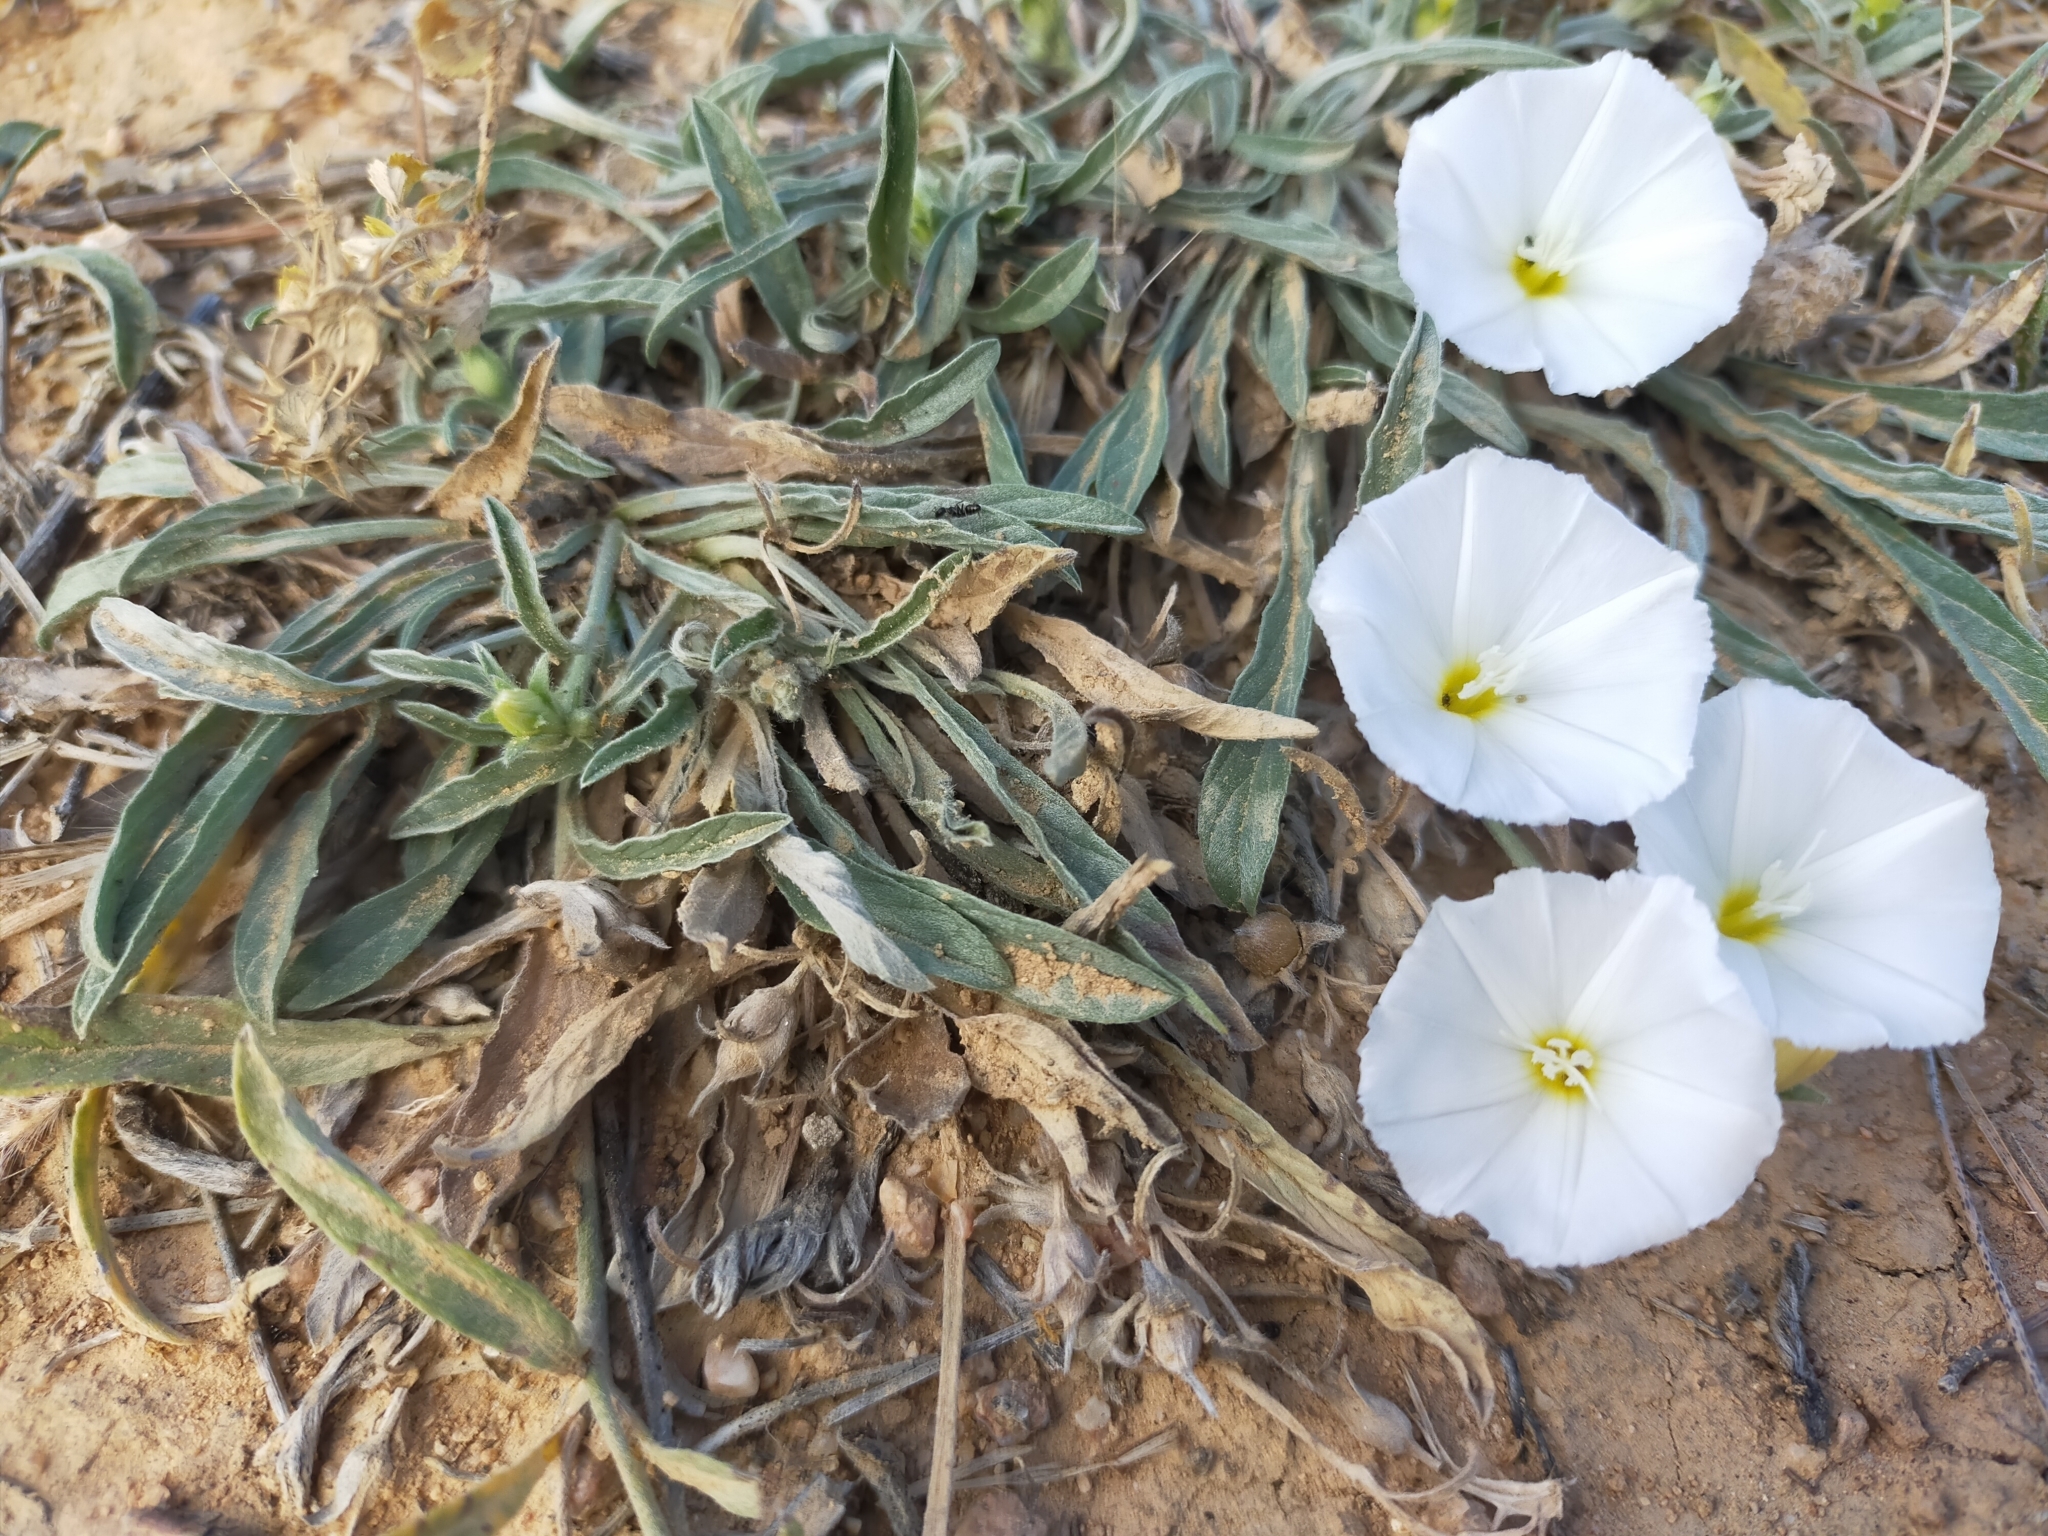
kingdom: Plantae
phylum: Tracheophyta
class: Magnoliopsida
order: Solanales
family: Convolvulaceae
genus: Convolvulus
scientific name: Convolvulus lineatus
